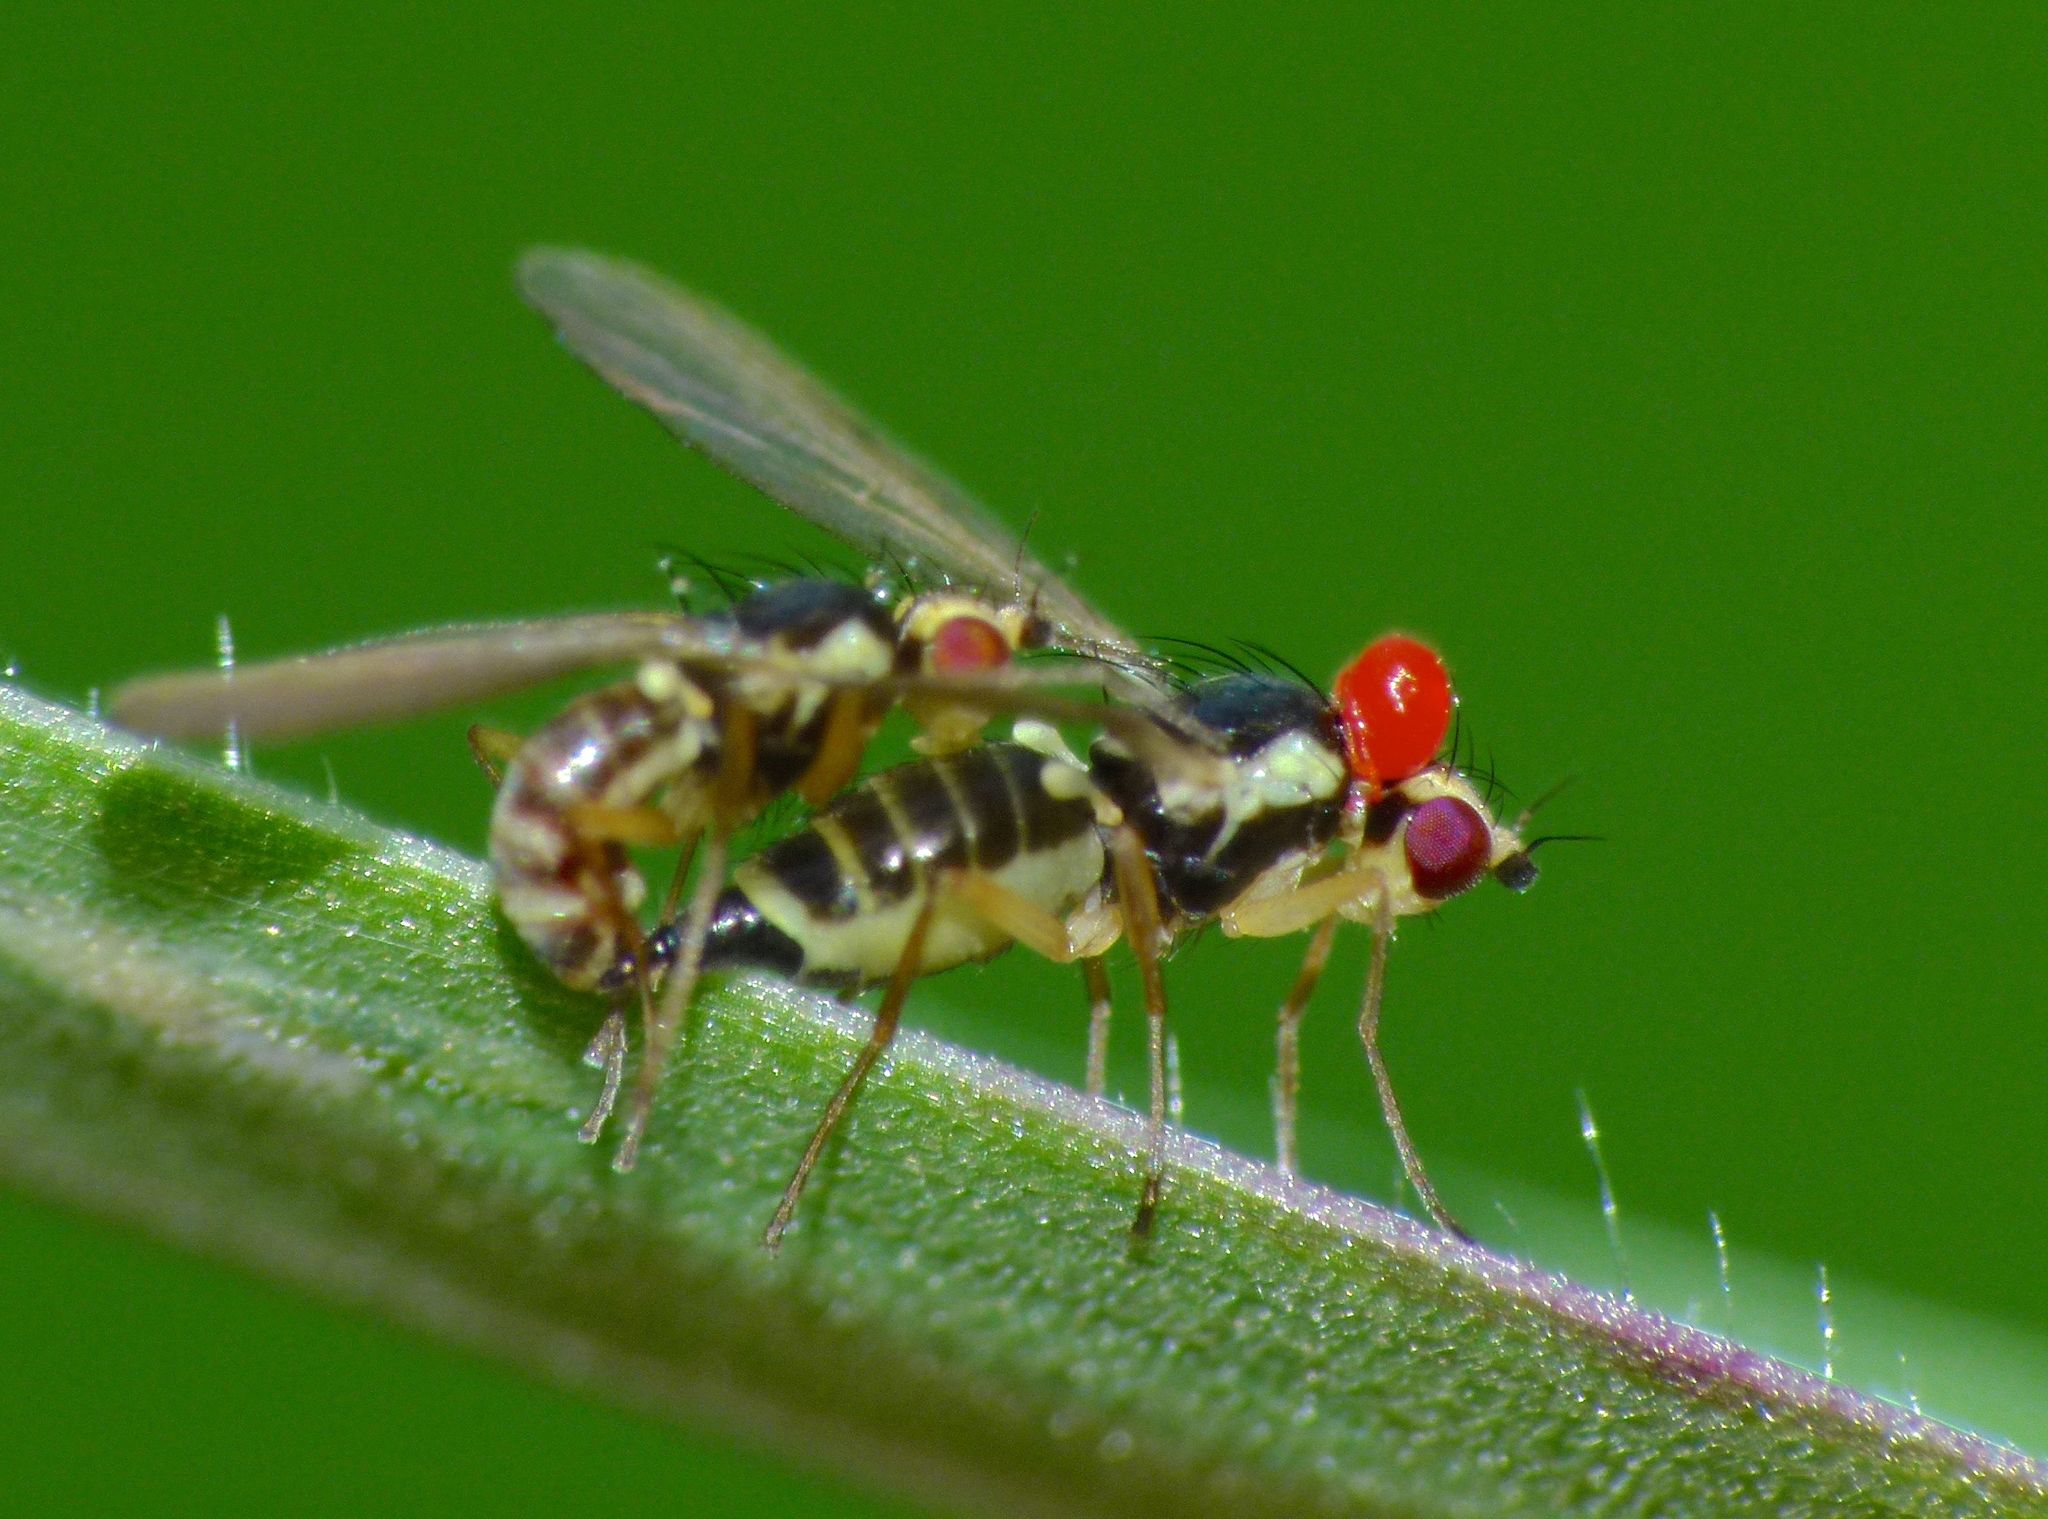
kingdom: Animalia
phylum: Arthropoda
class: Insecta
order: Diptera
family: Agromyzidae
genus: Cerodontha
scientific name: Cerodontha angustipennis
